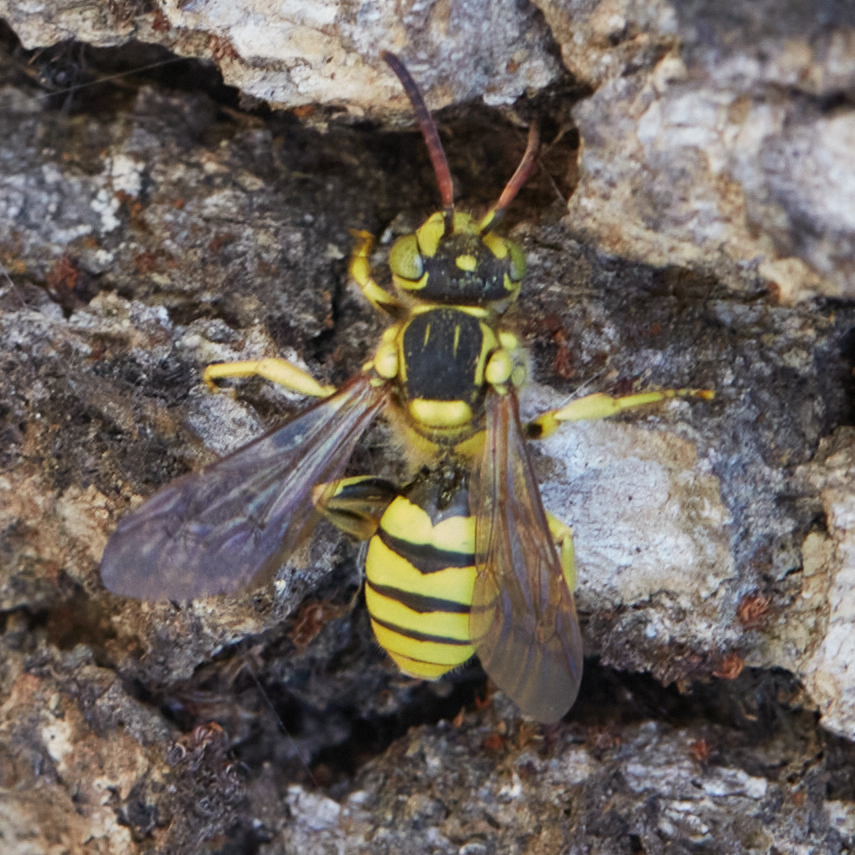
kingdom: Animalia
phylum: Arthropoda
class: Insecta
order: Hymenoptera
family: Apidae
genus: Nomada
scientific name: Nomada
